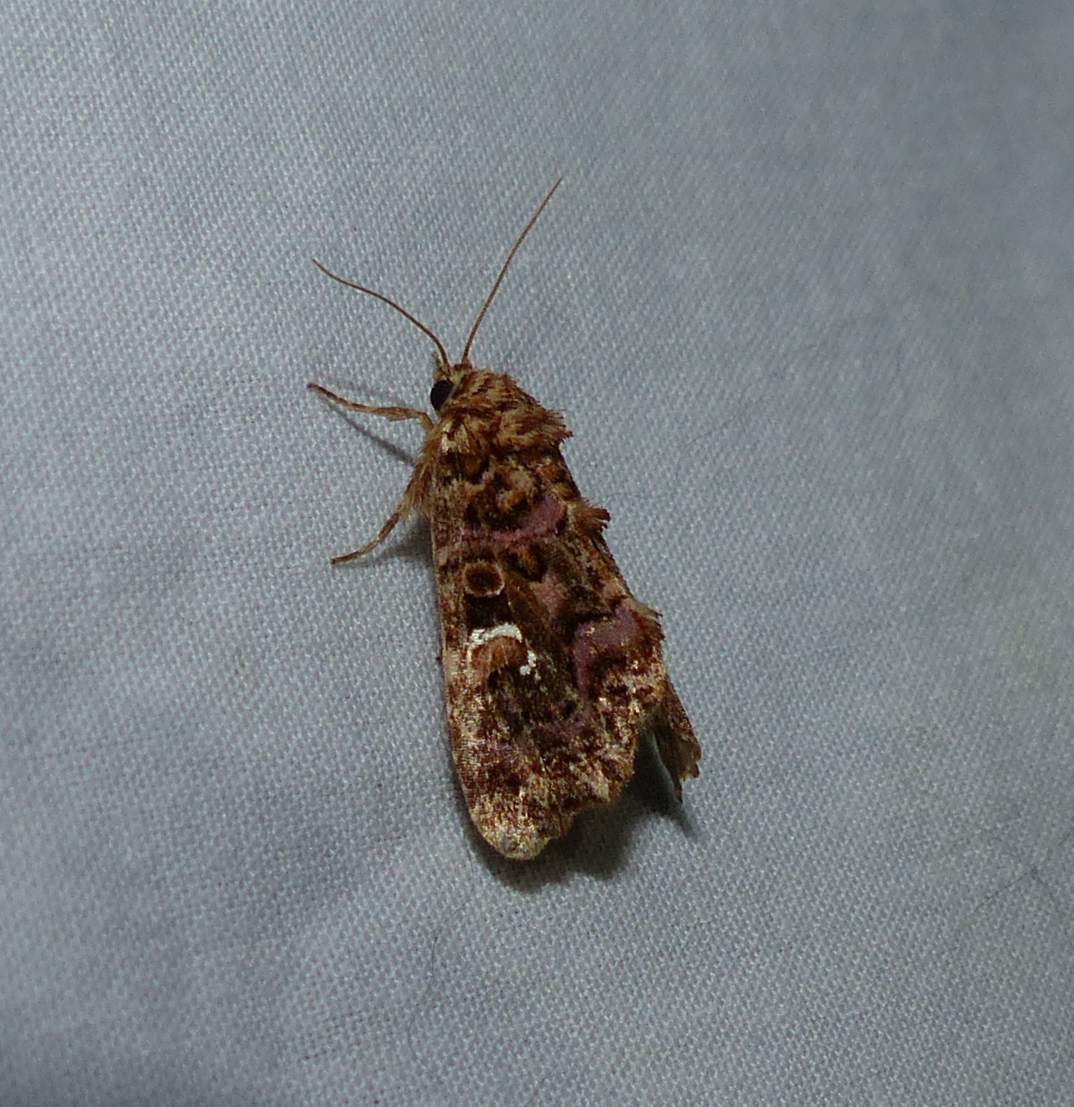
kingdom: Animalia
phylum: Arthropoda
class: Insecta
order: Lepidoptera
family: Noctuidae
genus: Callopistria
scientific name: Callopistria mollissima
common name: Pink-shaded fern moth
